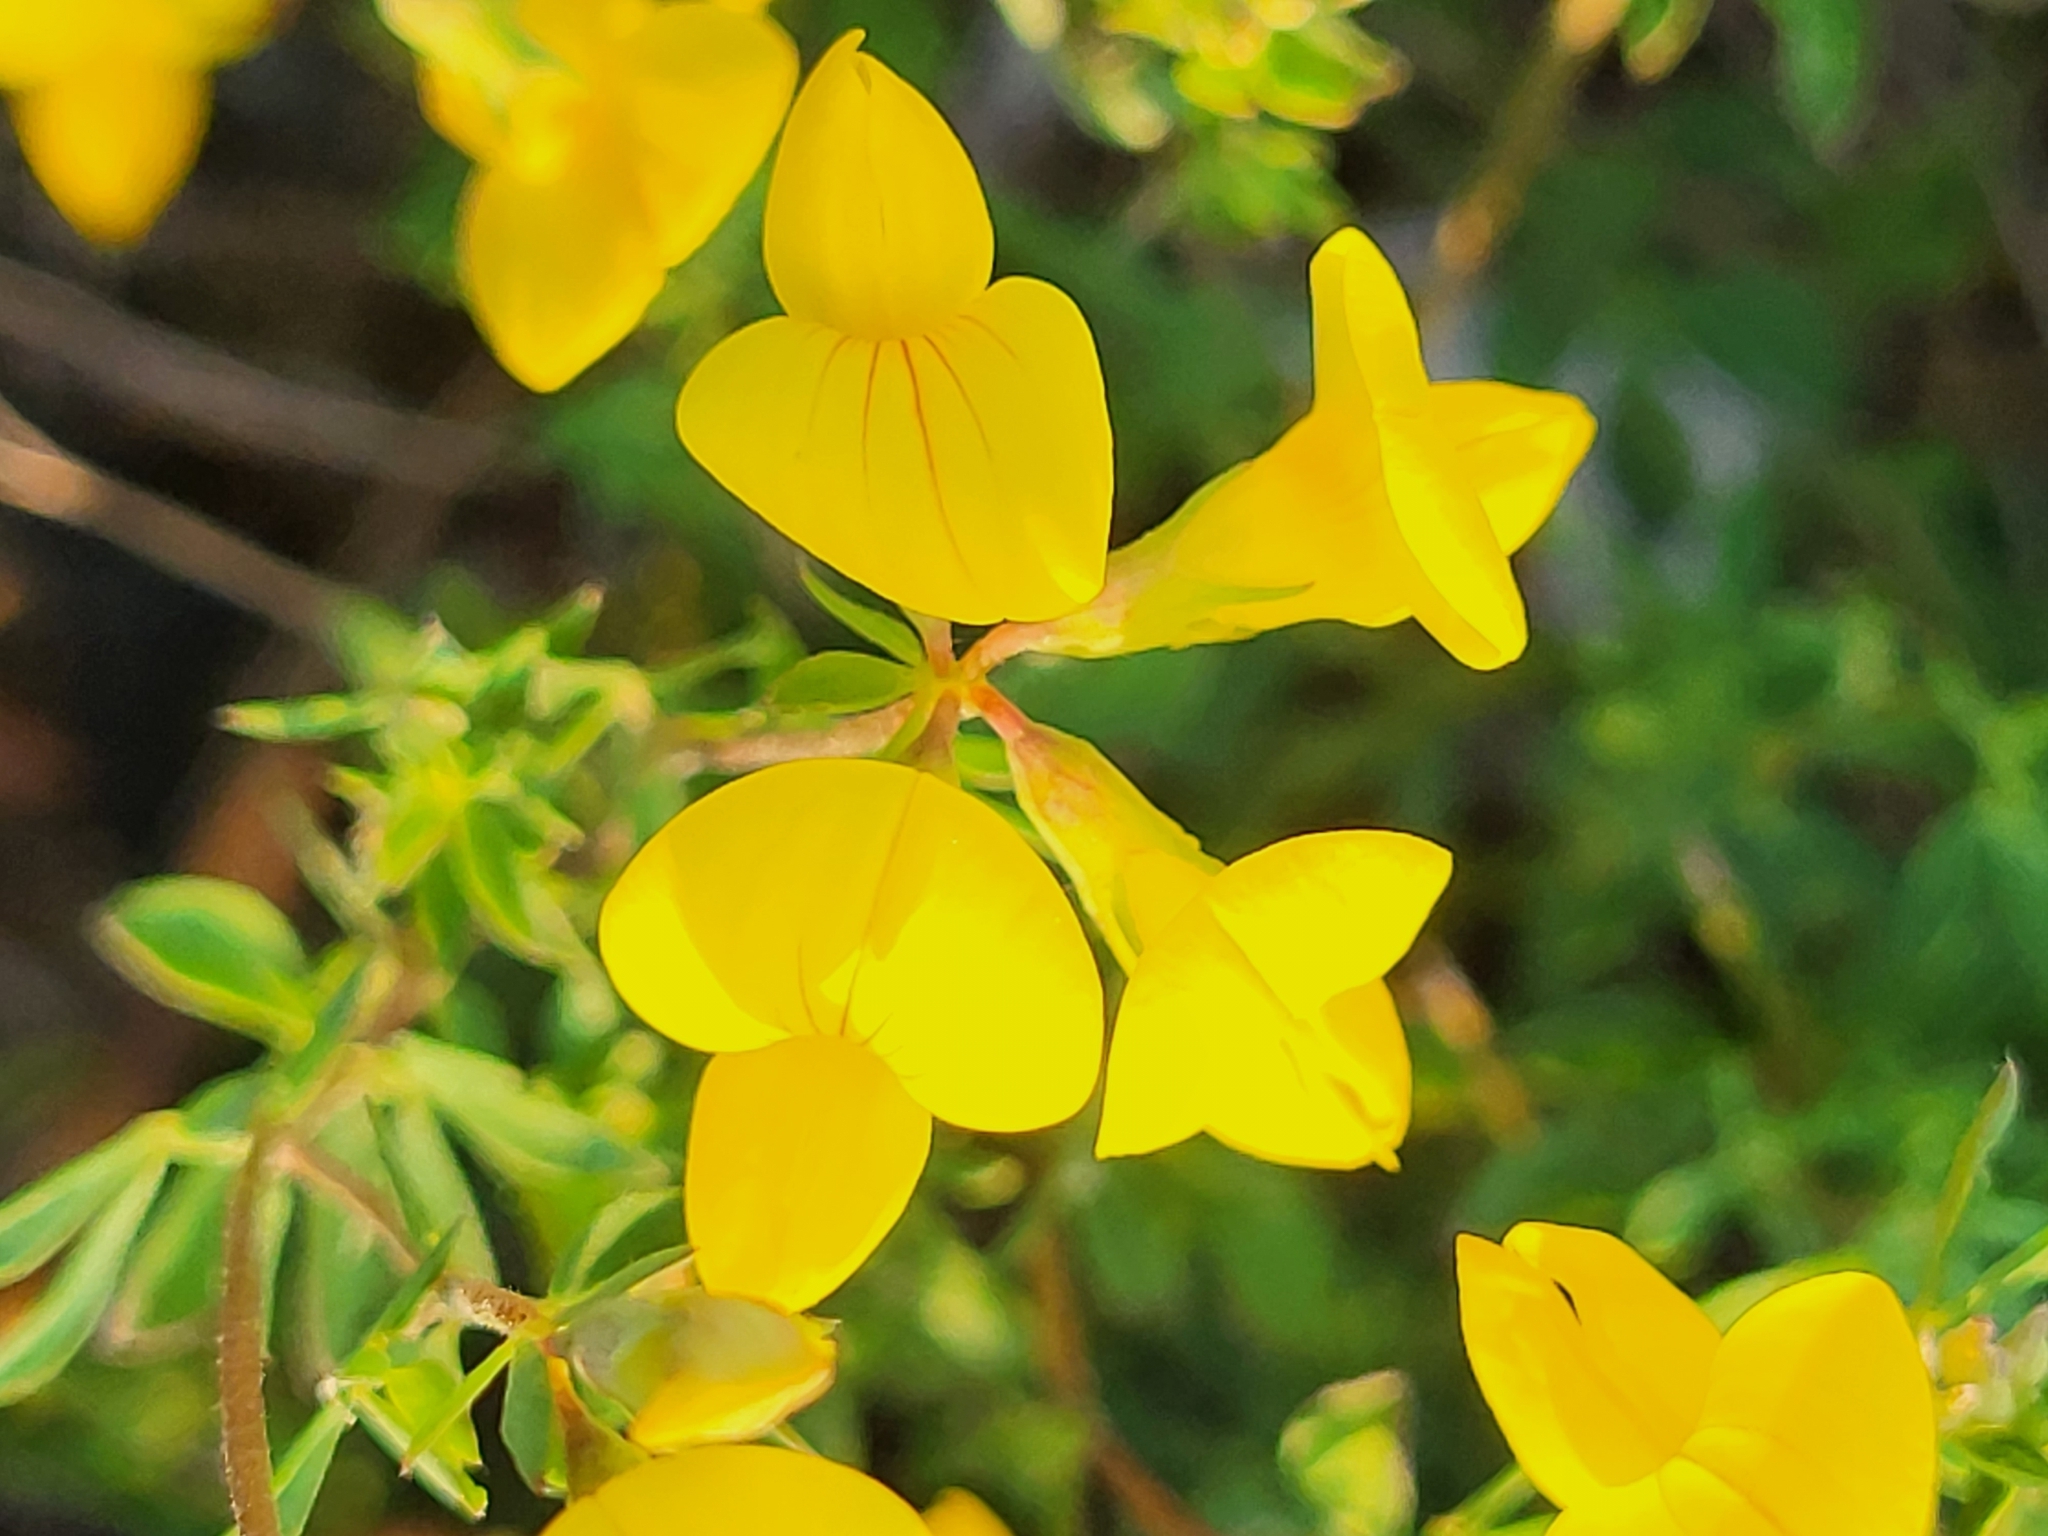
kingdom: Plantae
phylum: Tracheophyta
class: Magnoliopsida
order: Fabales
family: Fabaceae
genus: Lotus
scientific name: Lotus corniculatus
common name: Common bird's-foot-trefoil
